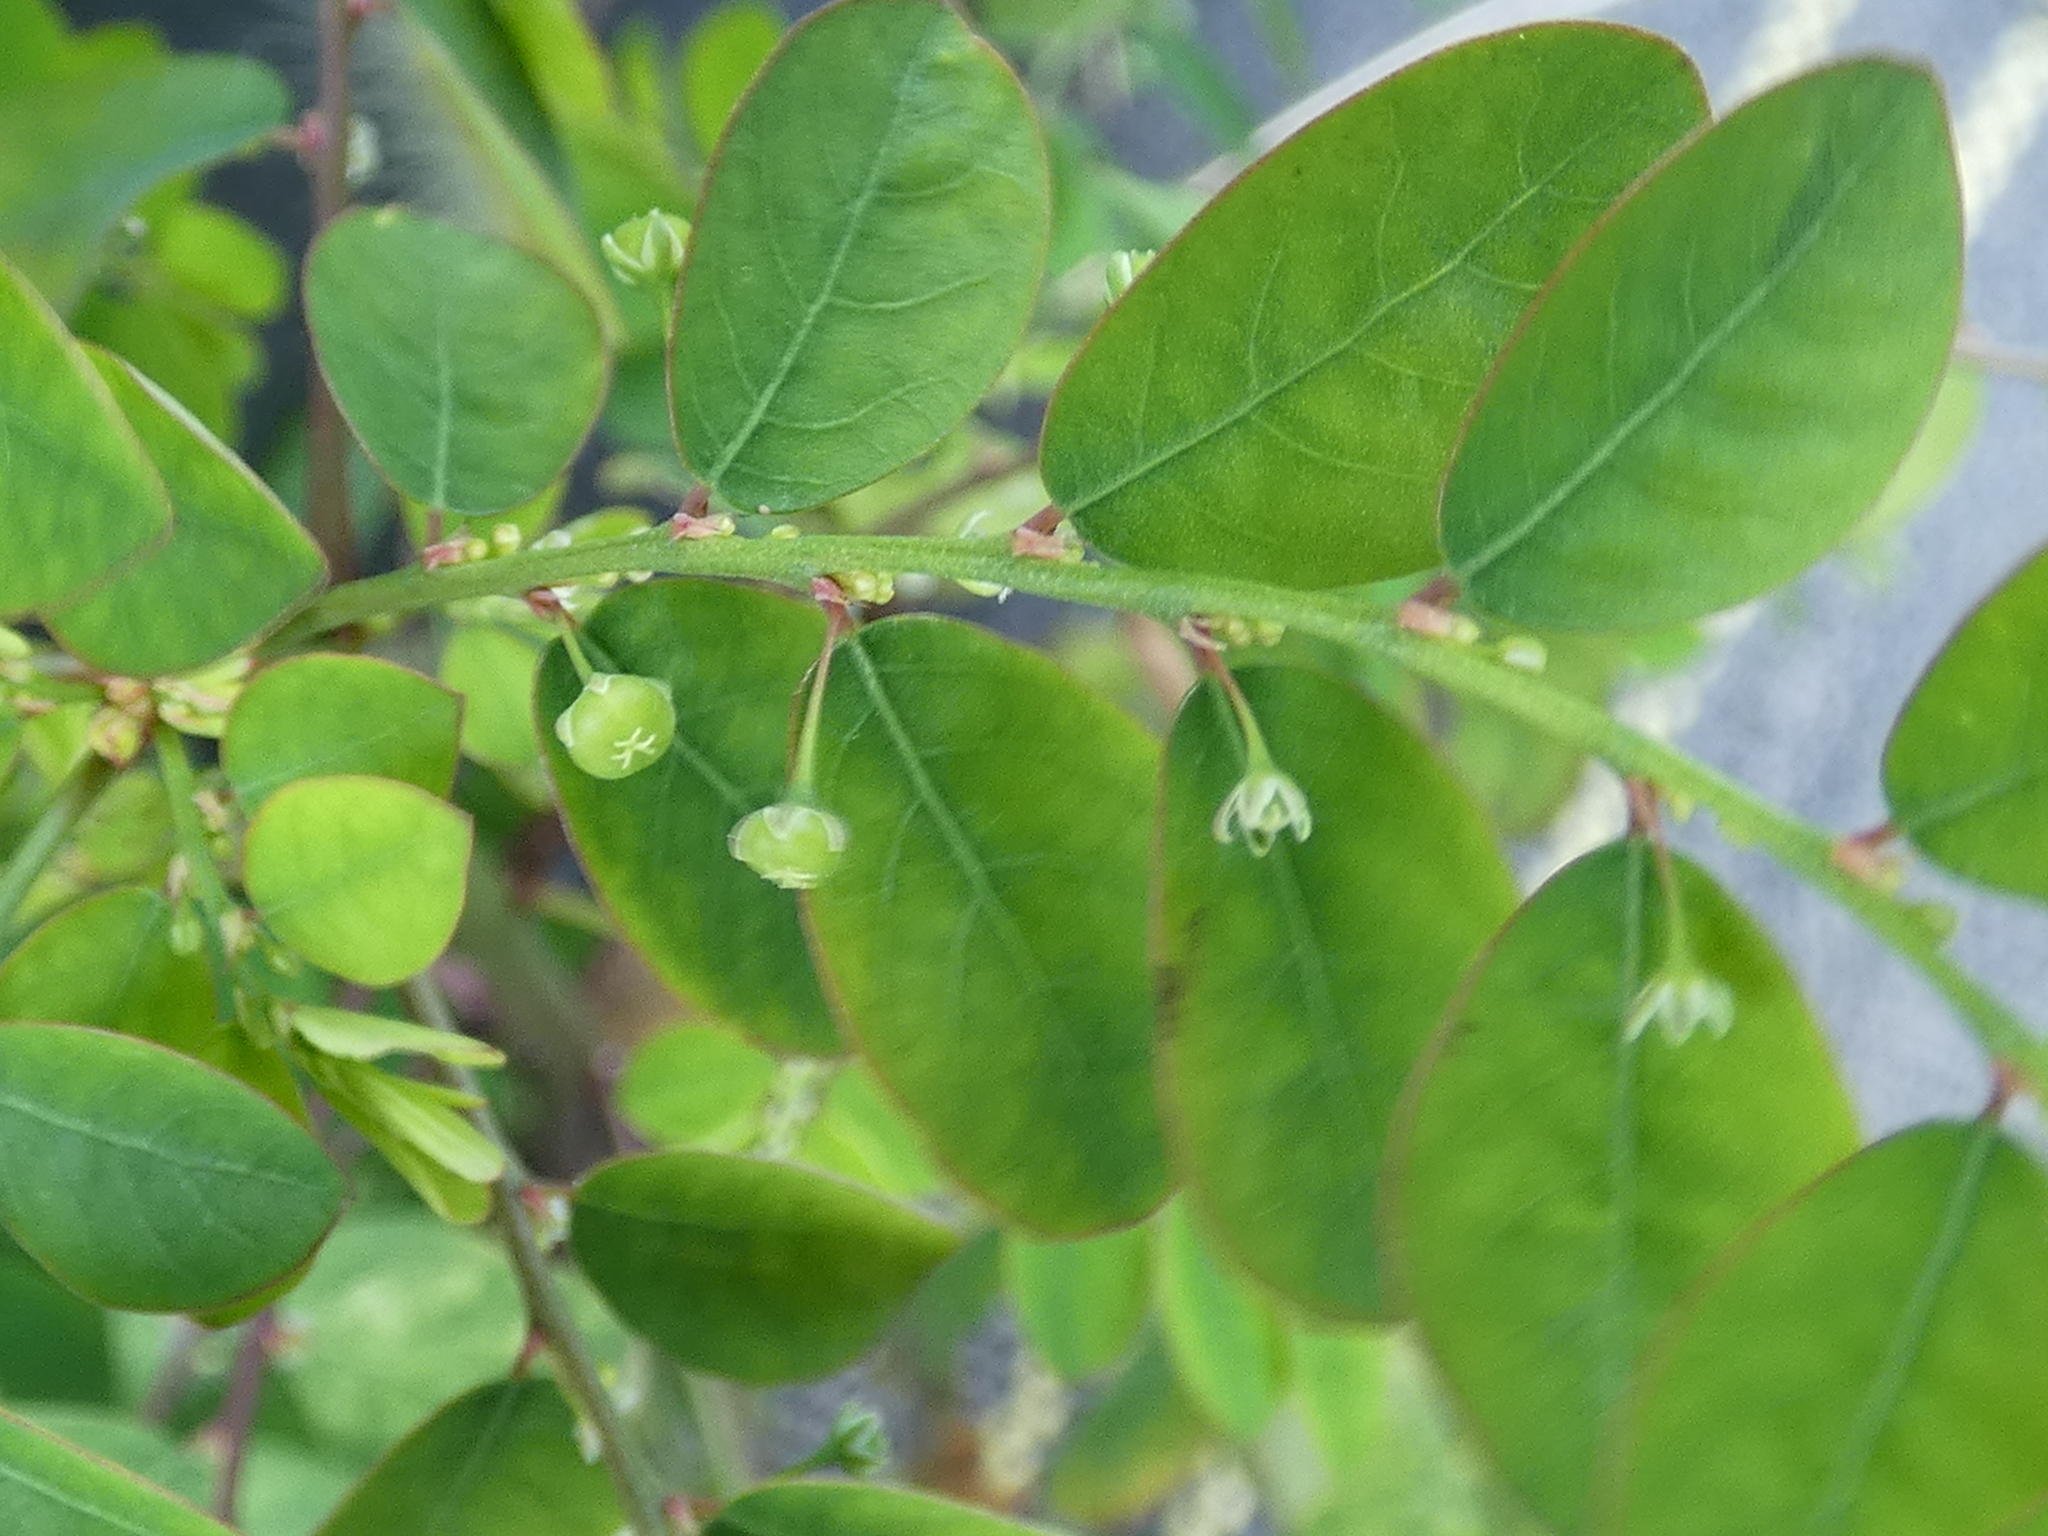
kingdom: Plantae
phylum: Tracheophyta
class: Magnoliopsida
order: Malpighiales
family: Phyllanthaceae
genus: Phyllanthus
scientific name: Phyllanthus urinaria
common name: Chamber bitter
